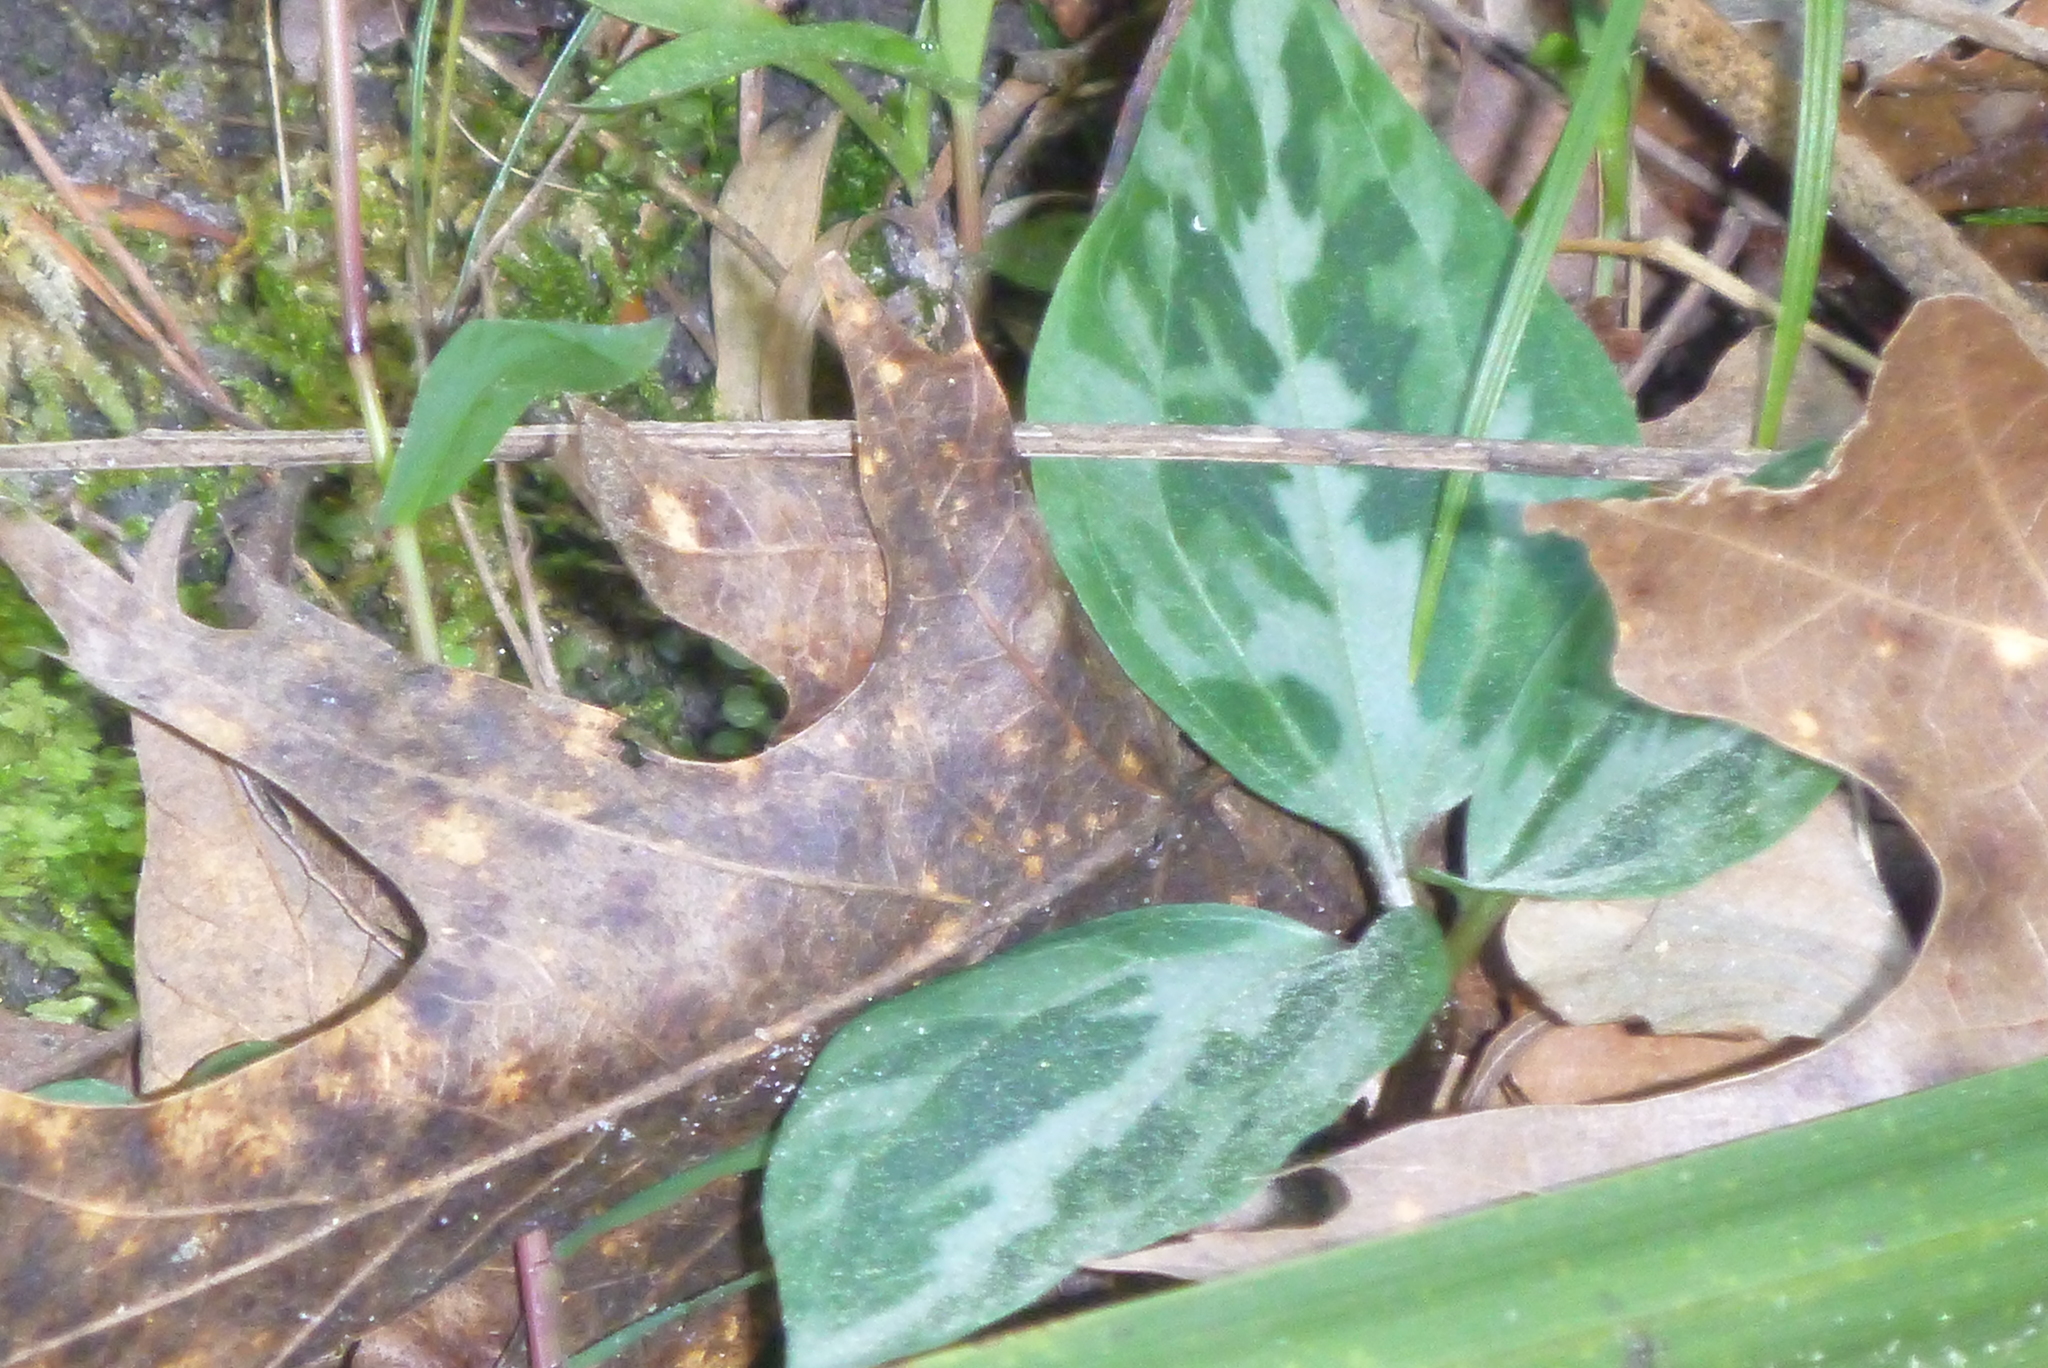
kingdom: Plantae
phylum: Tracheophyta
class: Liliopsida
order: Liliales
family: Melanthiaceae
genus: Trillium
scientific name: Trillium underwoodii
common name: Longbract wakerobin
